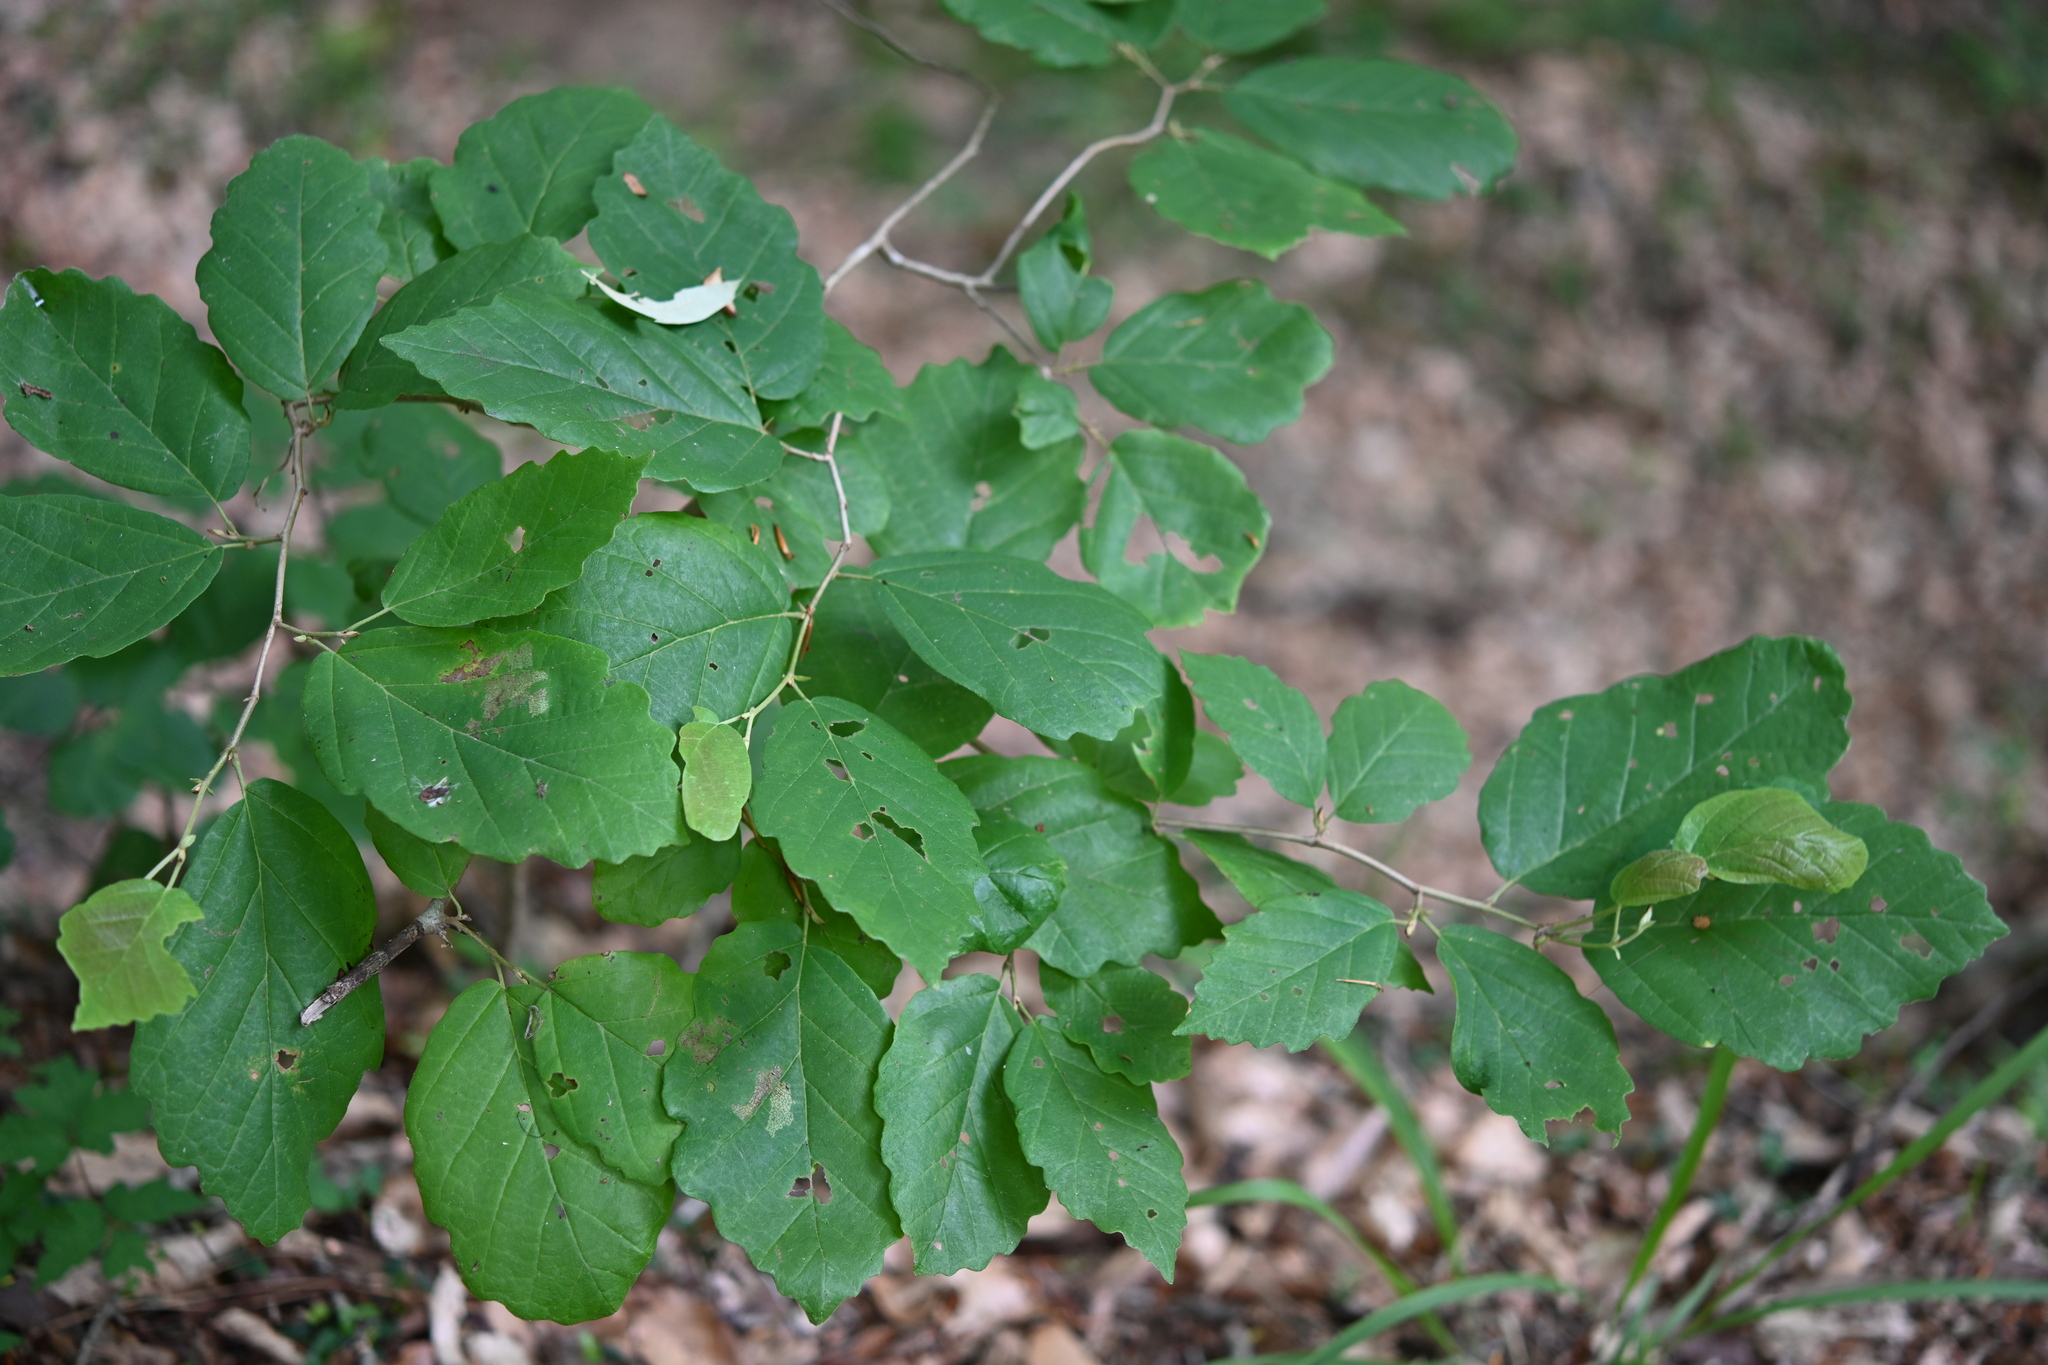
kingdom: Plantae
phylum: Tracheophyta
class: Magnoliopsida
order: Saxifragales
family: Hamamelidaceae
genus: Hamamelis
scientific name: Hamamelis virginiana
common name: Witch-hazel
